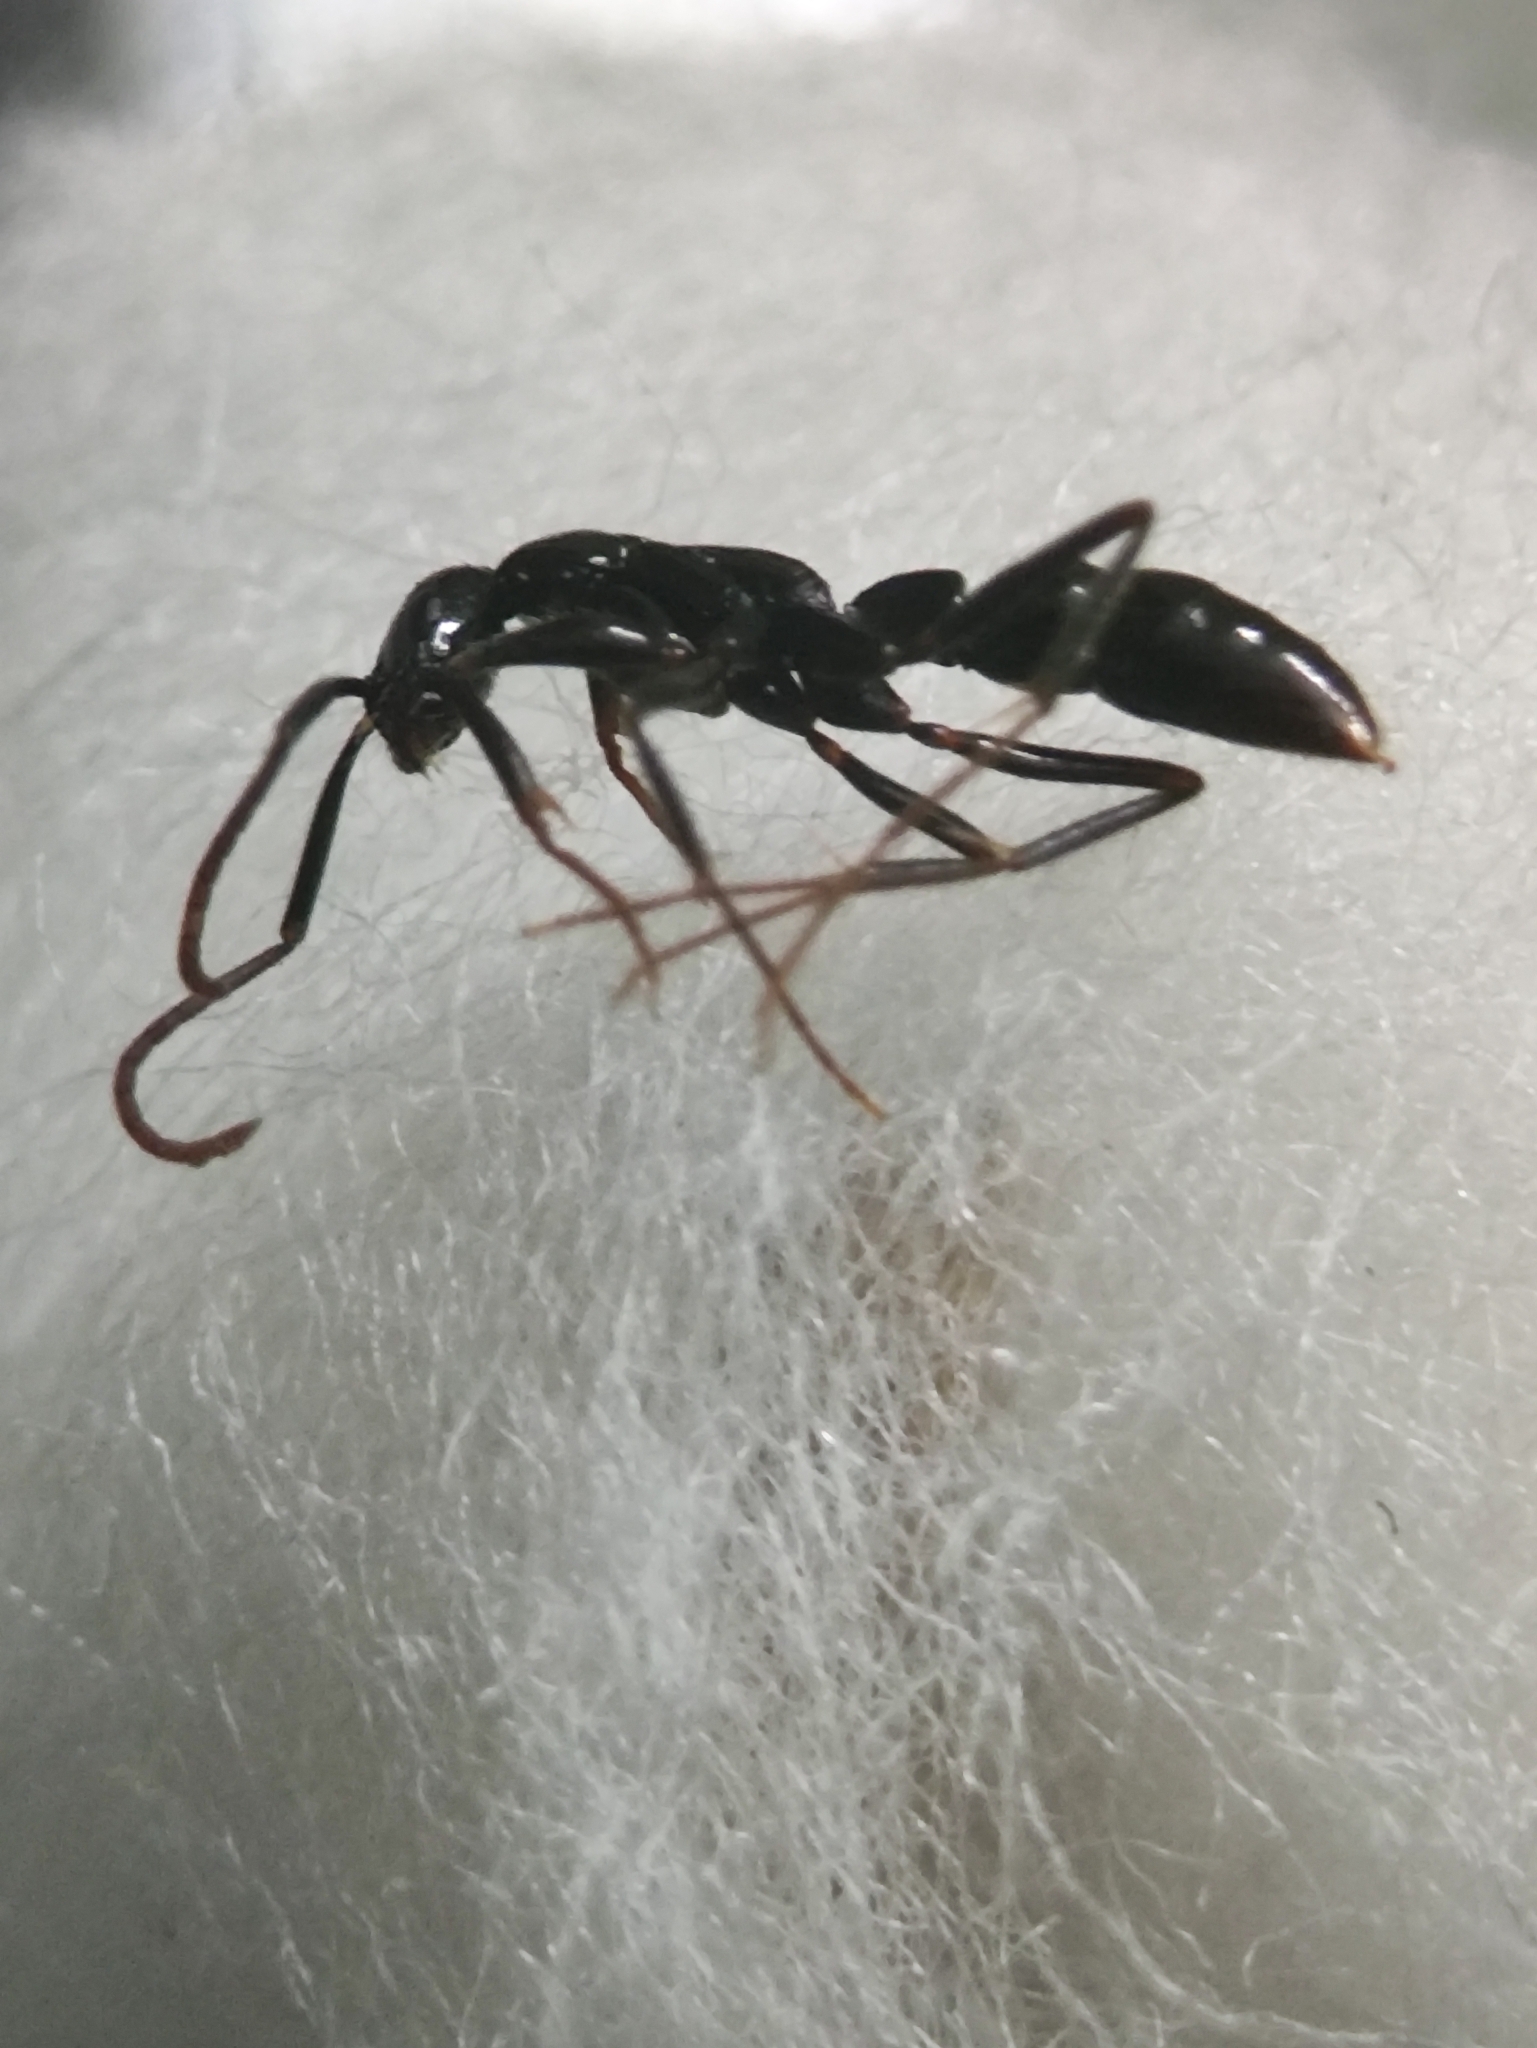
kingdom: Animalia
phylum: Arthropoda
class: Insecta
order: Hymenoptera
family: Formicidae
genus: Leptogenys
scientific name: Leptogenys peuqueti
